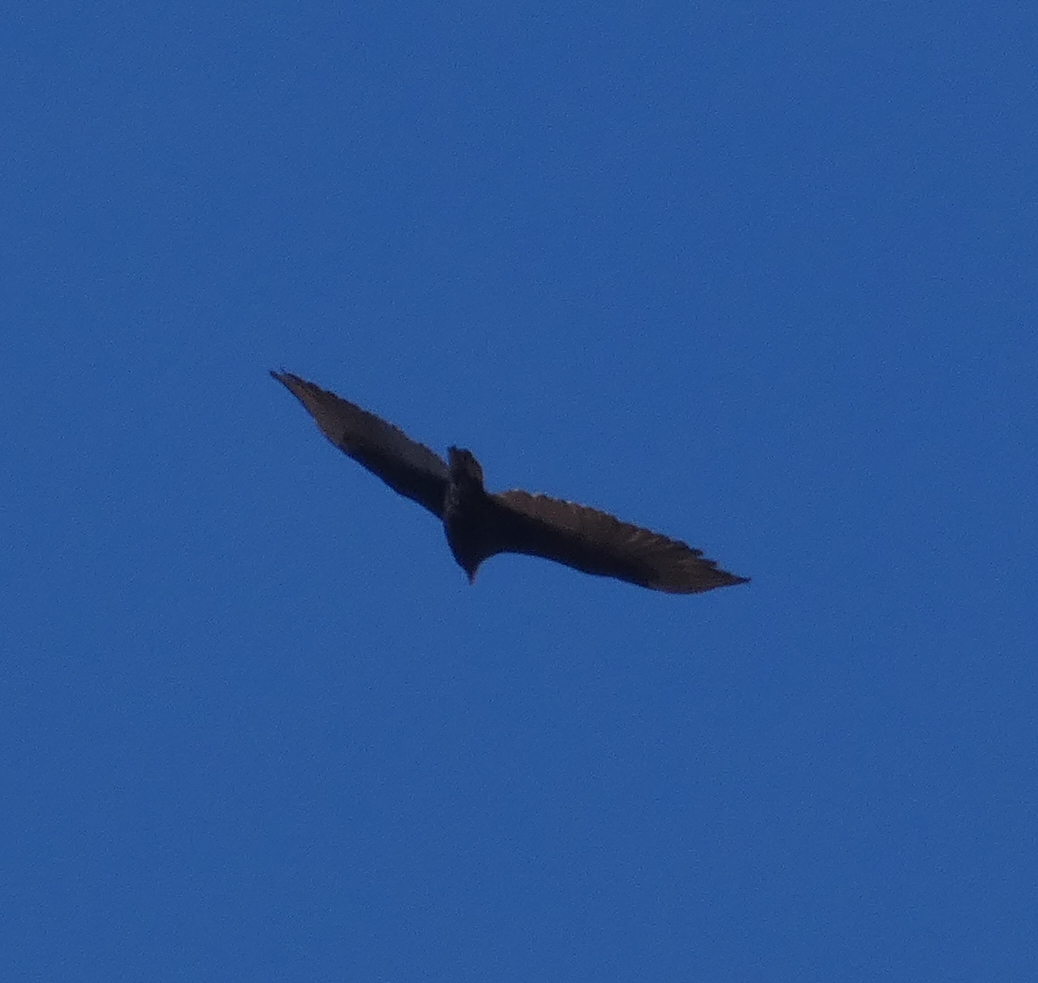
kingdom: Animalia
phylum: Chordata
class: Aves
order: Accipitriformes
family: Cathartidae
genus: Cathartes
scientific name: Cathartes aura
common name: Turkey vulture
